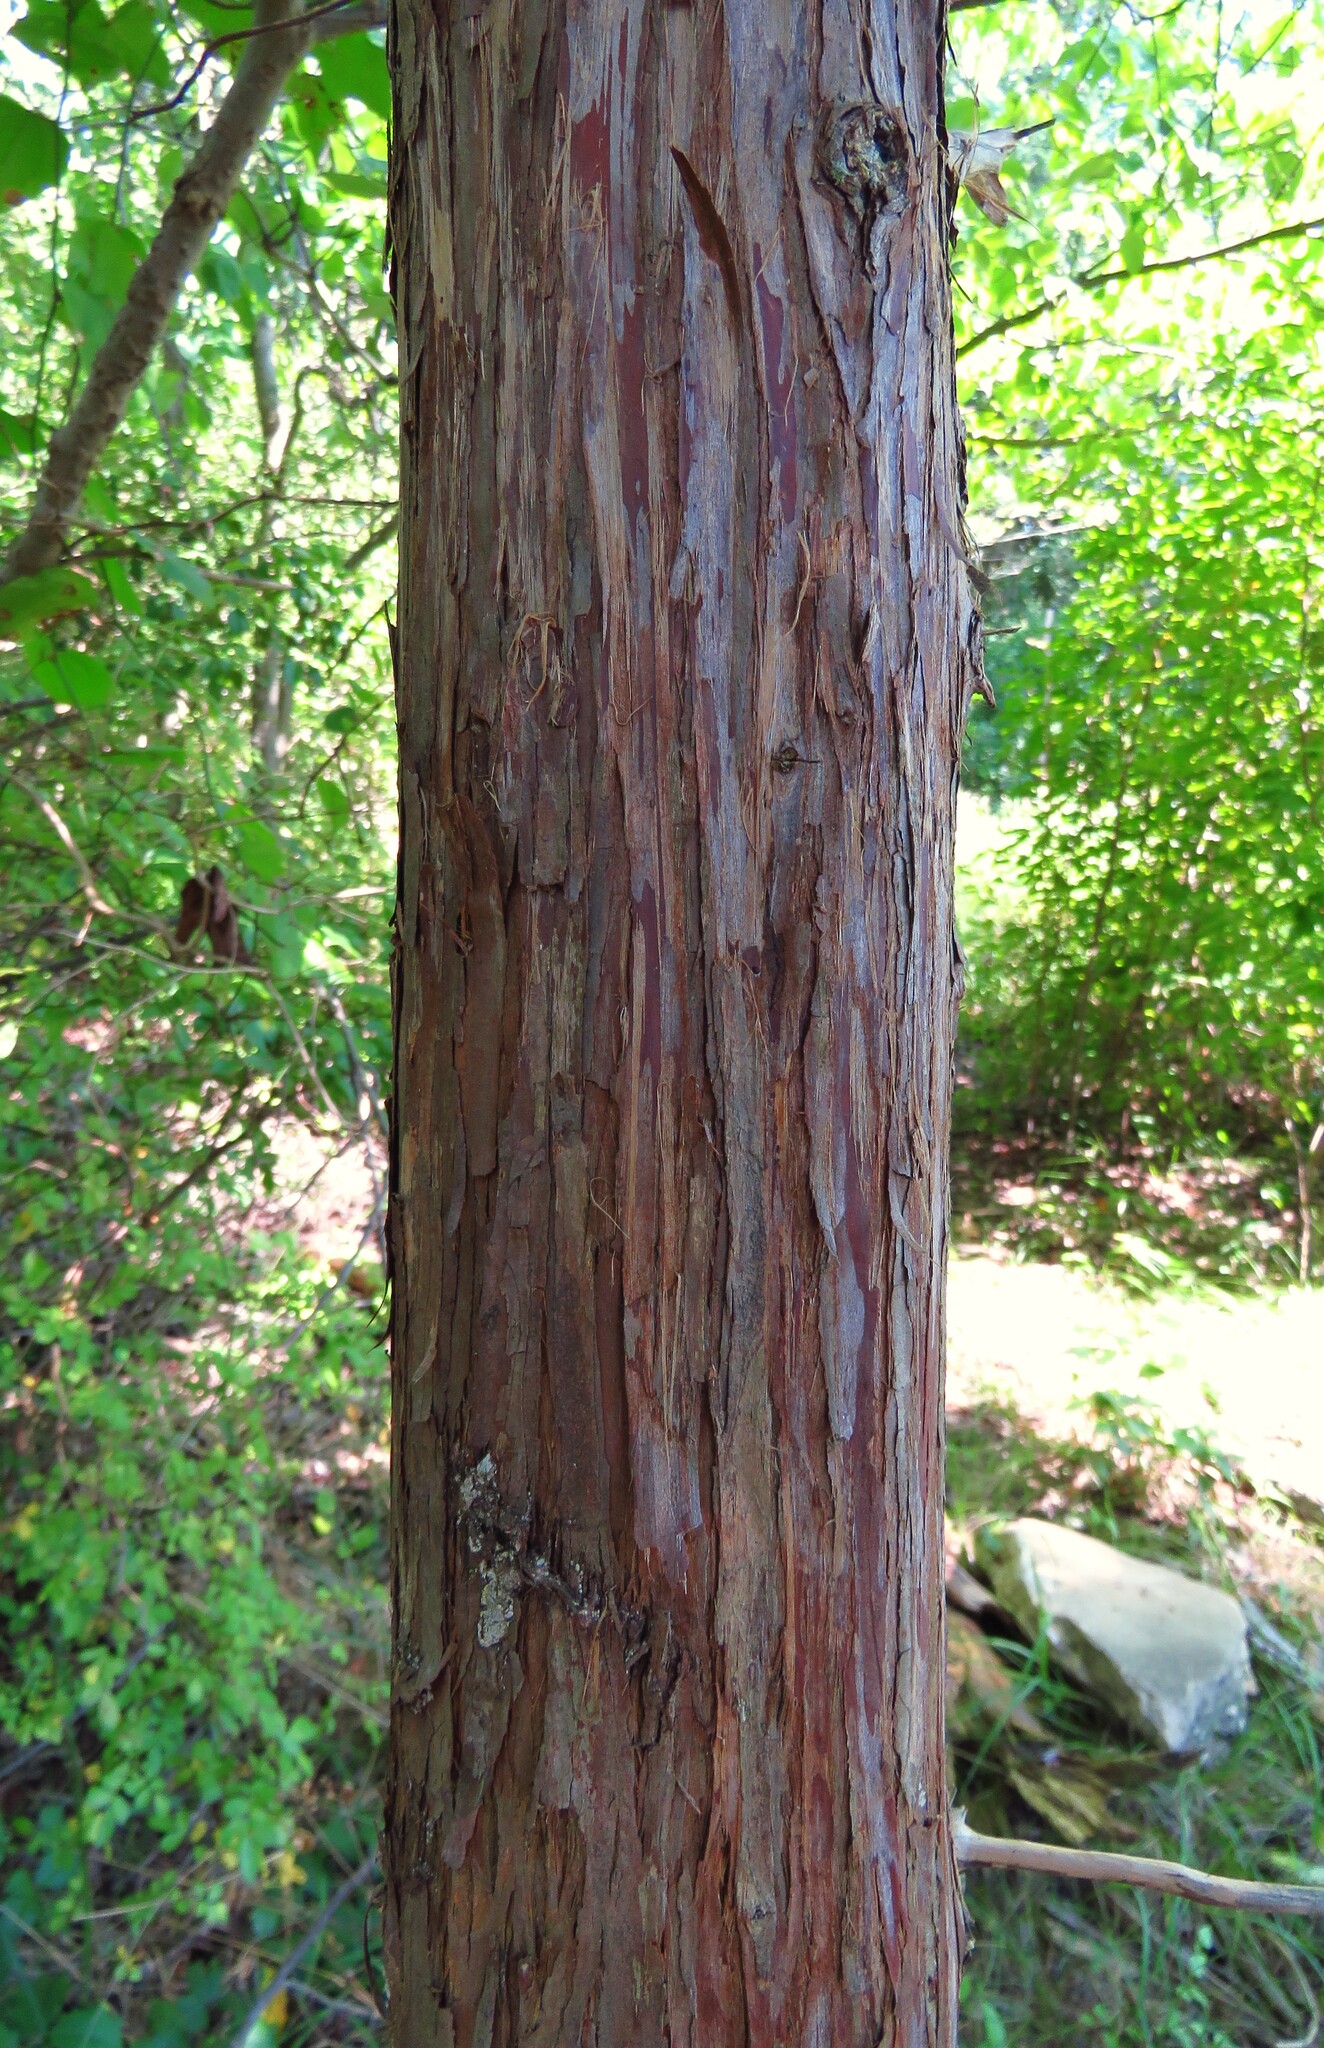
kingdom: Plantae
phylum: Tracheophyta
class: Pinopsida
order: Pinales
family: Cupressaceae
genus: Juniperus
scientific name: Juniperus virginiana
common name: Red juniper
